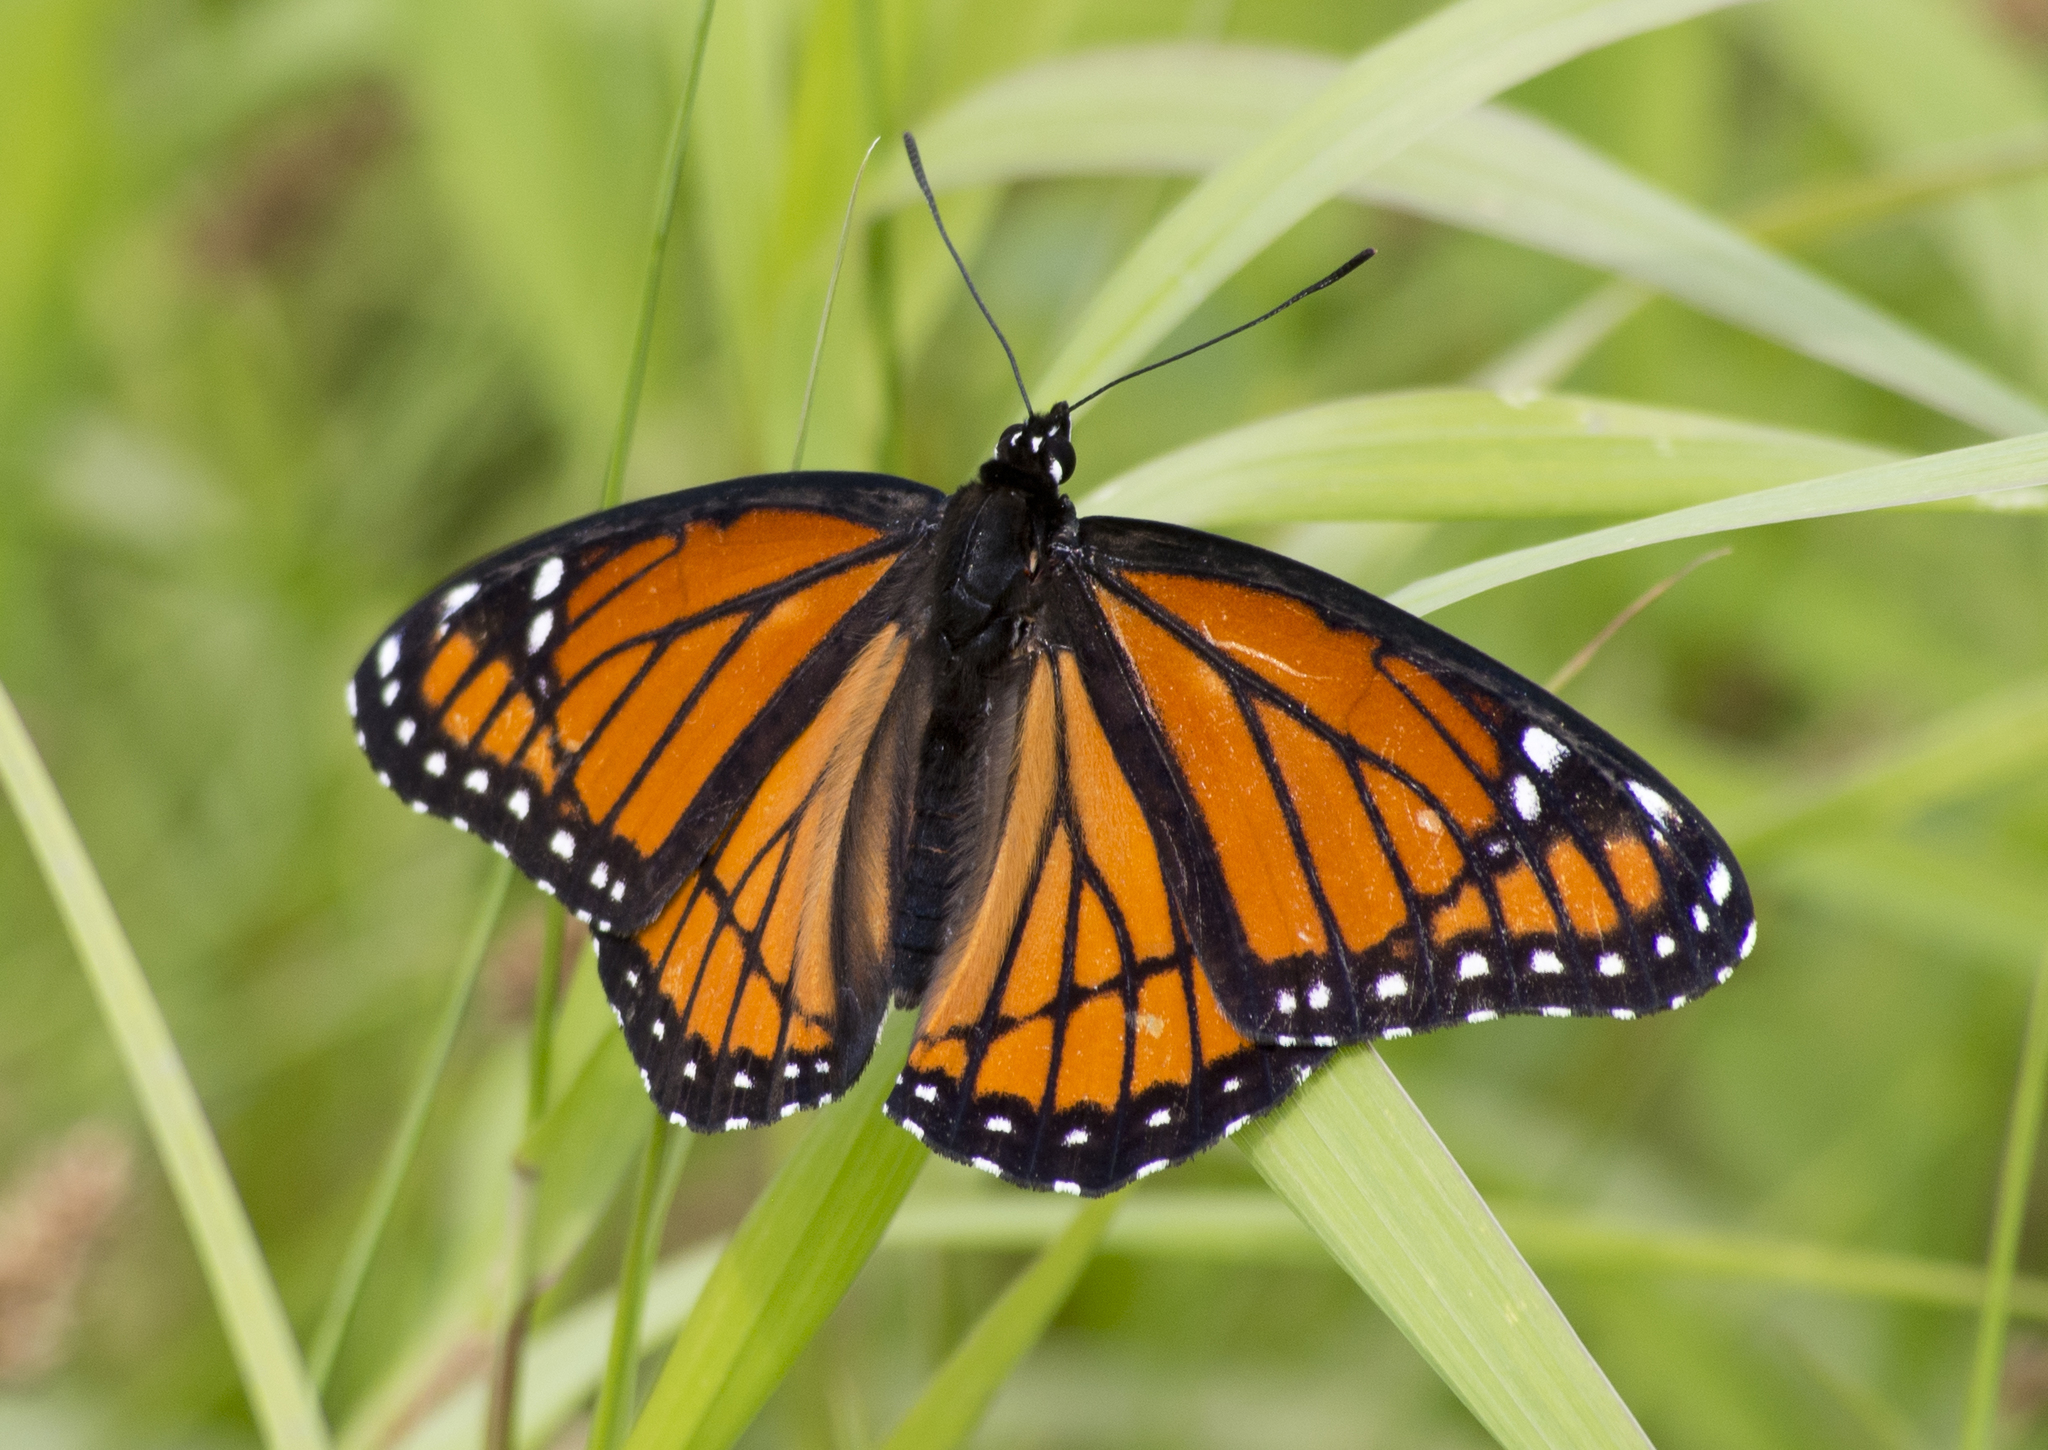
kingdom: Animalia
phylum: Arthropoda
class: Insecta
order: Lepidoptera
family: Nymphalidae
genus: Limenitis
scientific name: Limenitis archippus
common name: Viceroy
